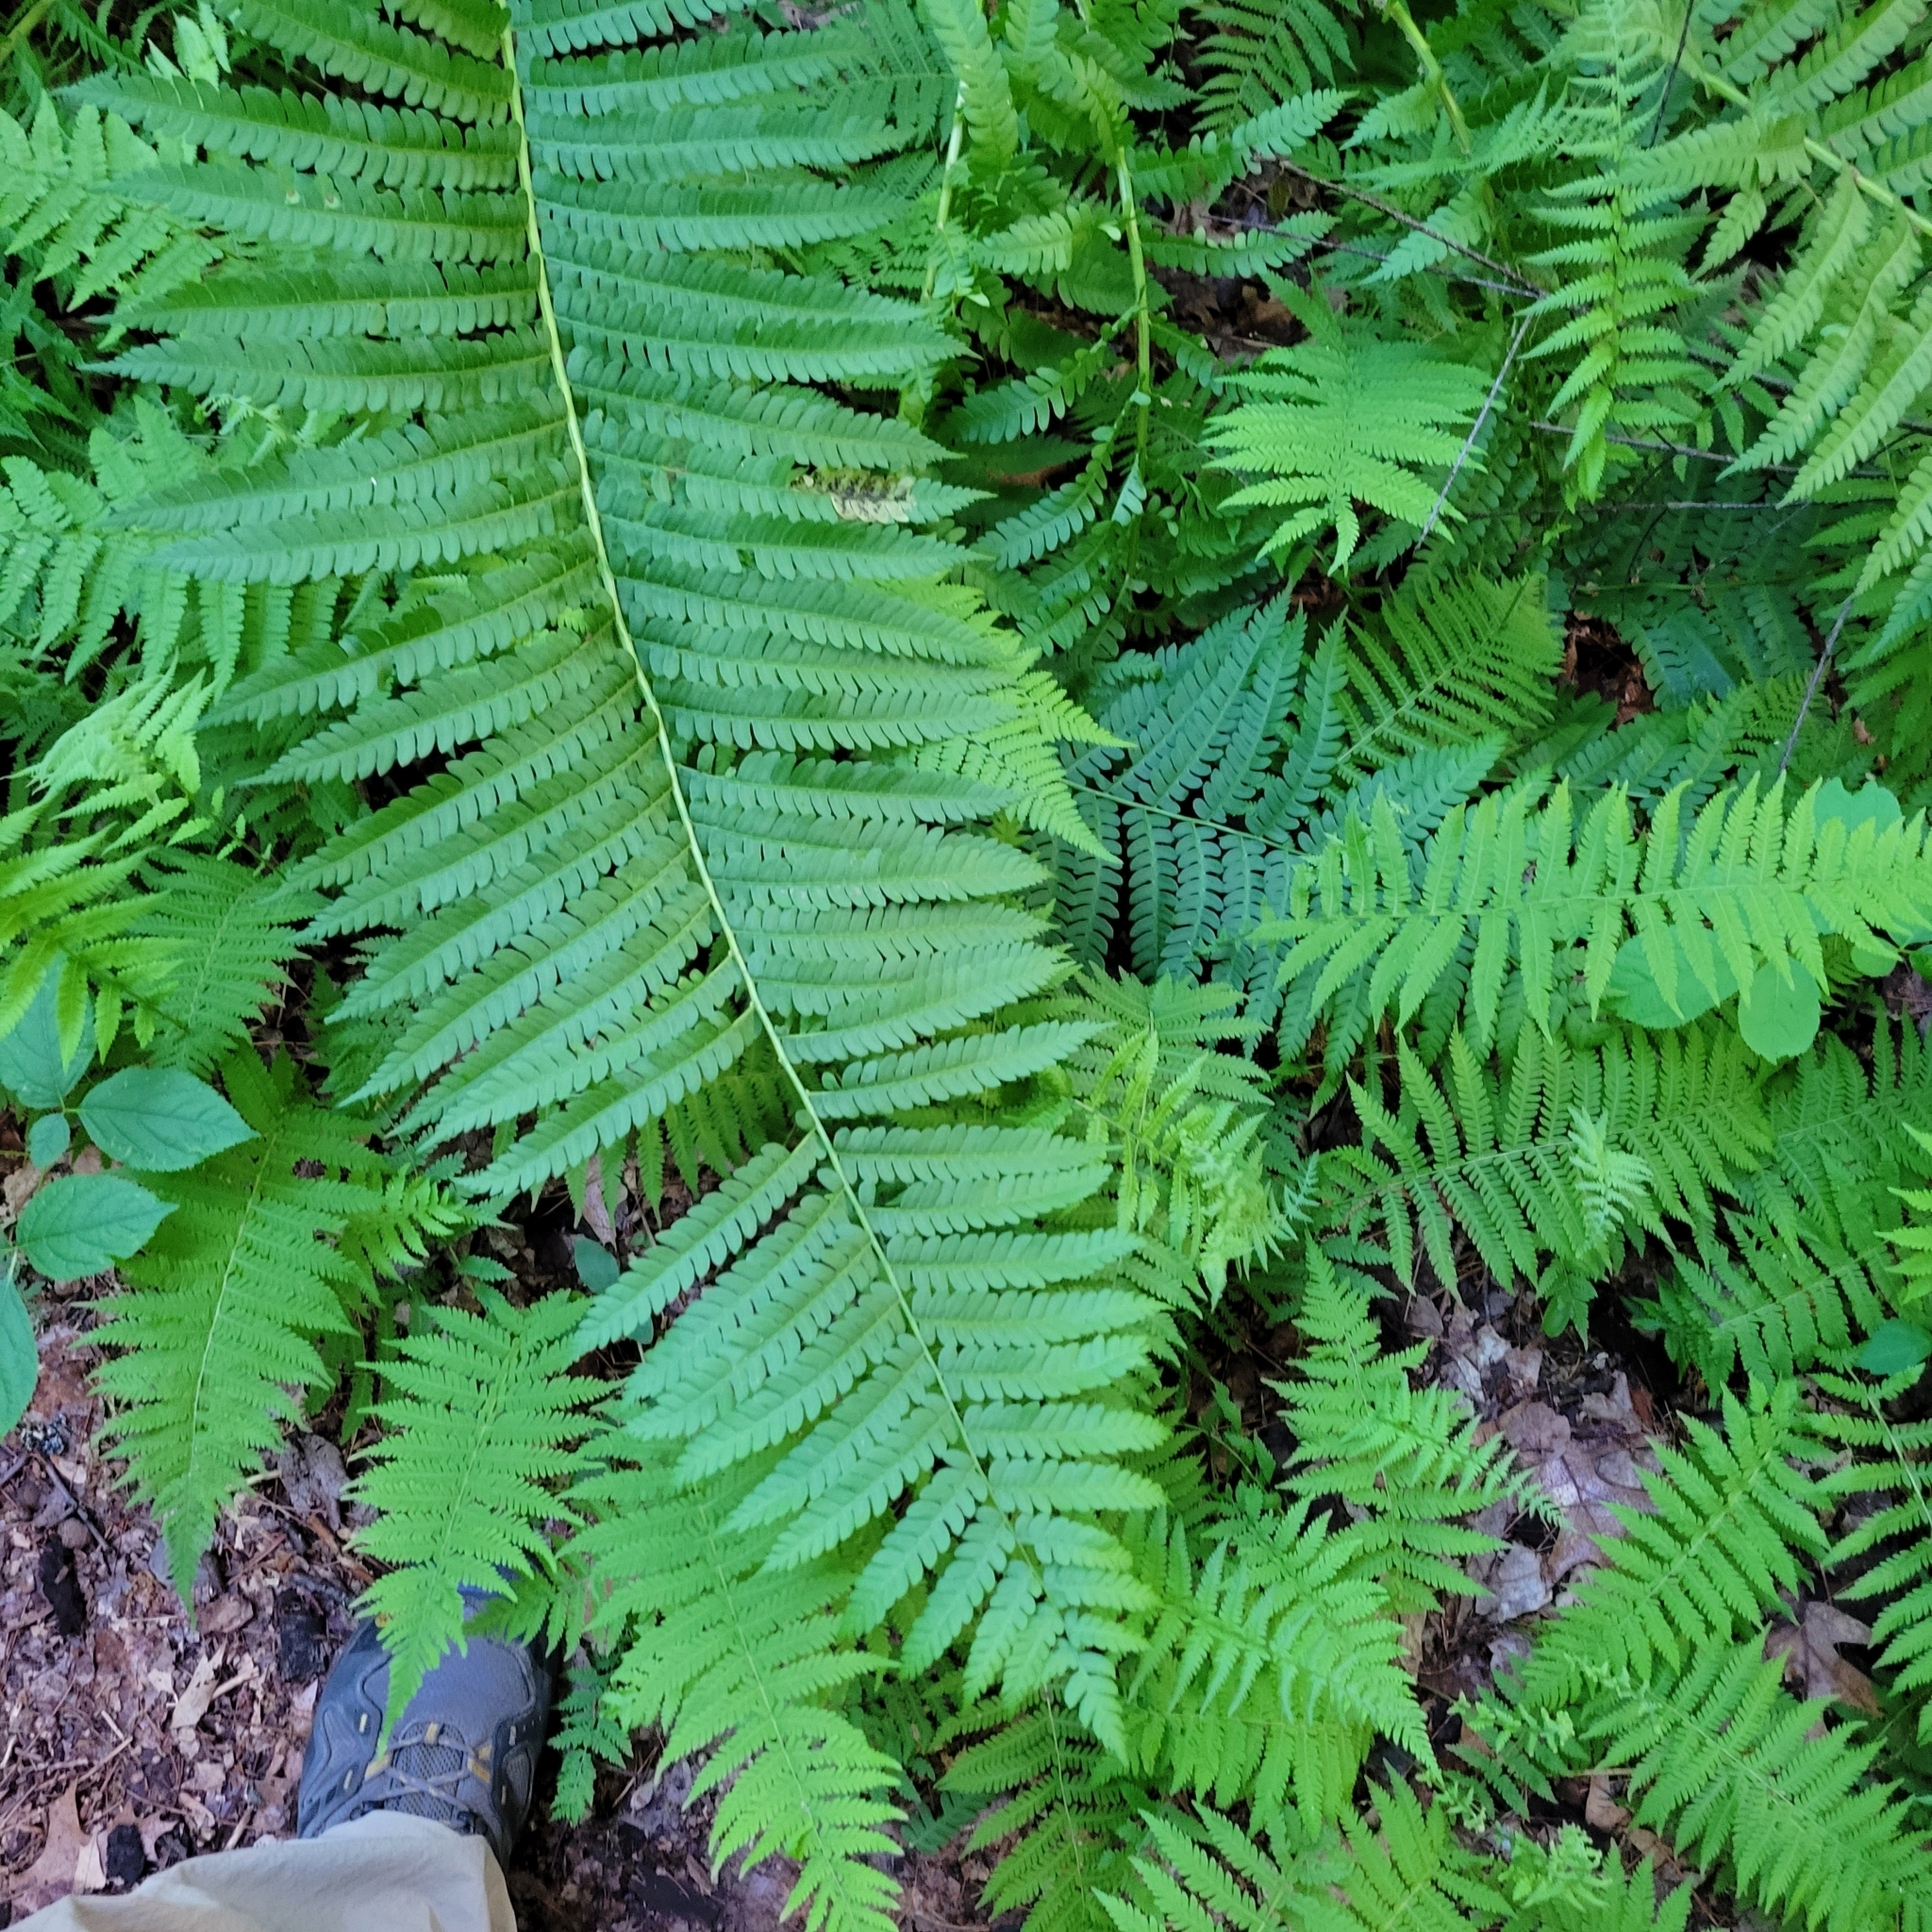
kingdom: Plantae
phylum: Tracheophyta
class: Polypodiopsida
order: Osmundales
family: Osmundaceae
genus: Osmundastrum
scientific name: Osmundastrum cinnamomeum
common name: Cinnamon fern
